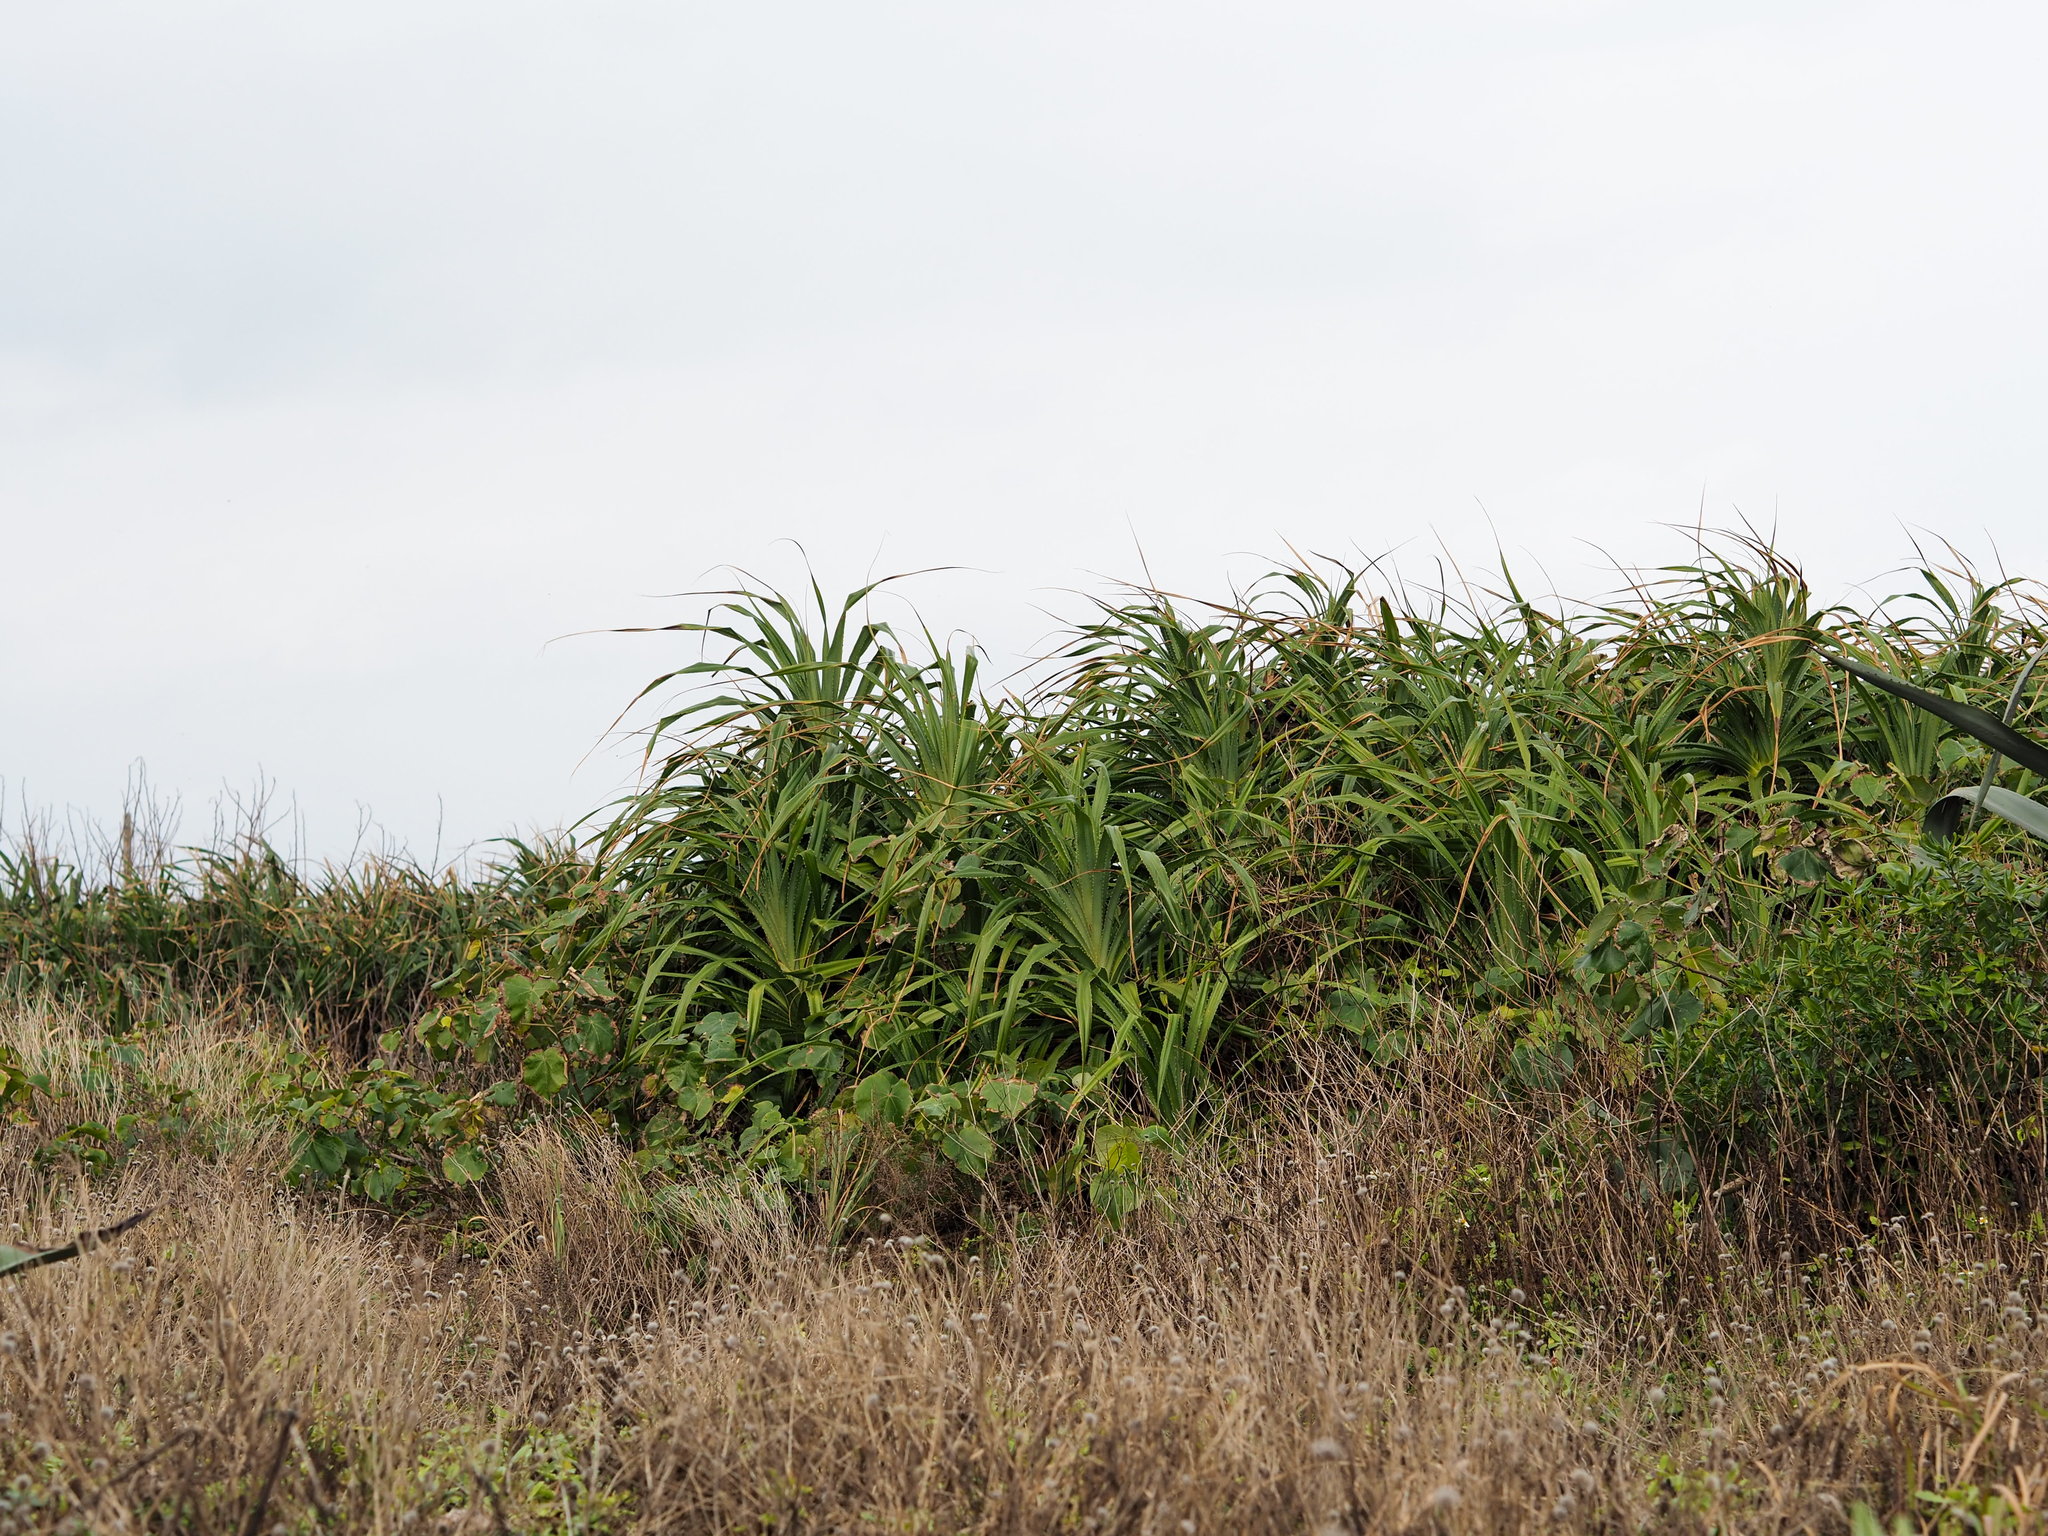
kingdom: Plantae
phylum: Tracheophyta
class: Liliopsida
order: Pandanales
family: Pandanaceae
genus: Pandanus
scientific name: Pandanus odorifer
